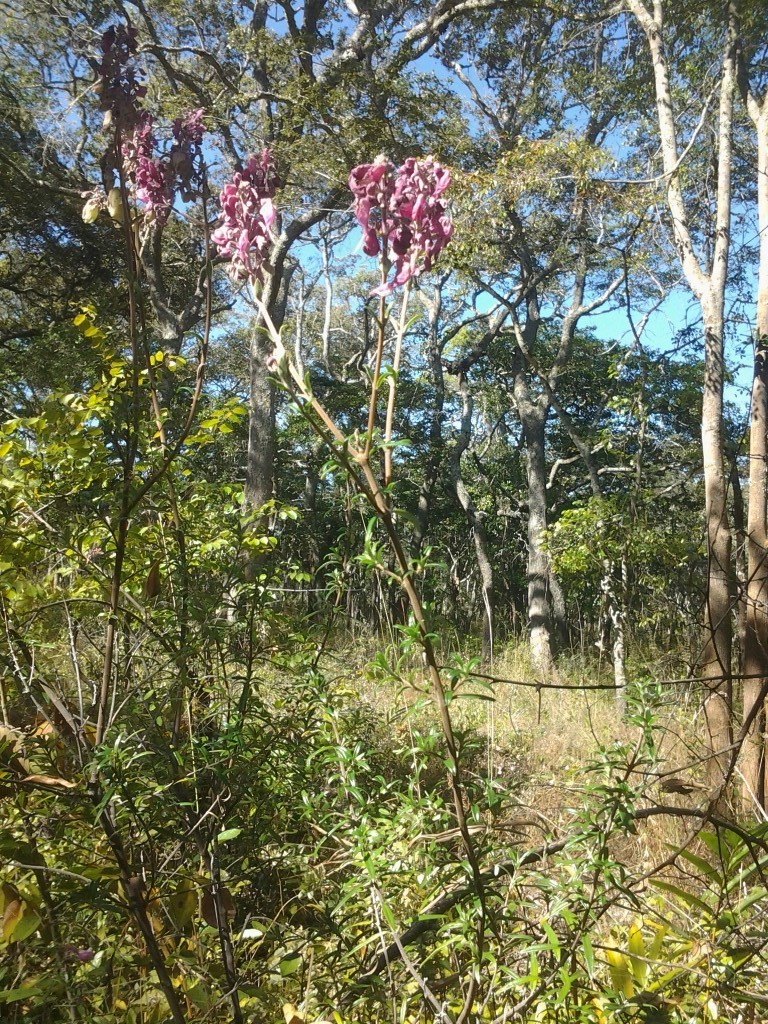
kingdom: Plantae
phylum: Tracheophyta
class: Magnoliopsida
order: Lamiales
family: Lamiaceae
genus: Alvesia
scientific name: Alvesia rosmarinifolia
